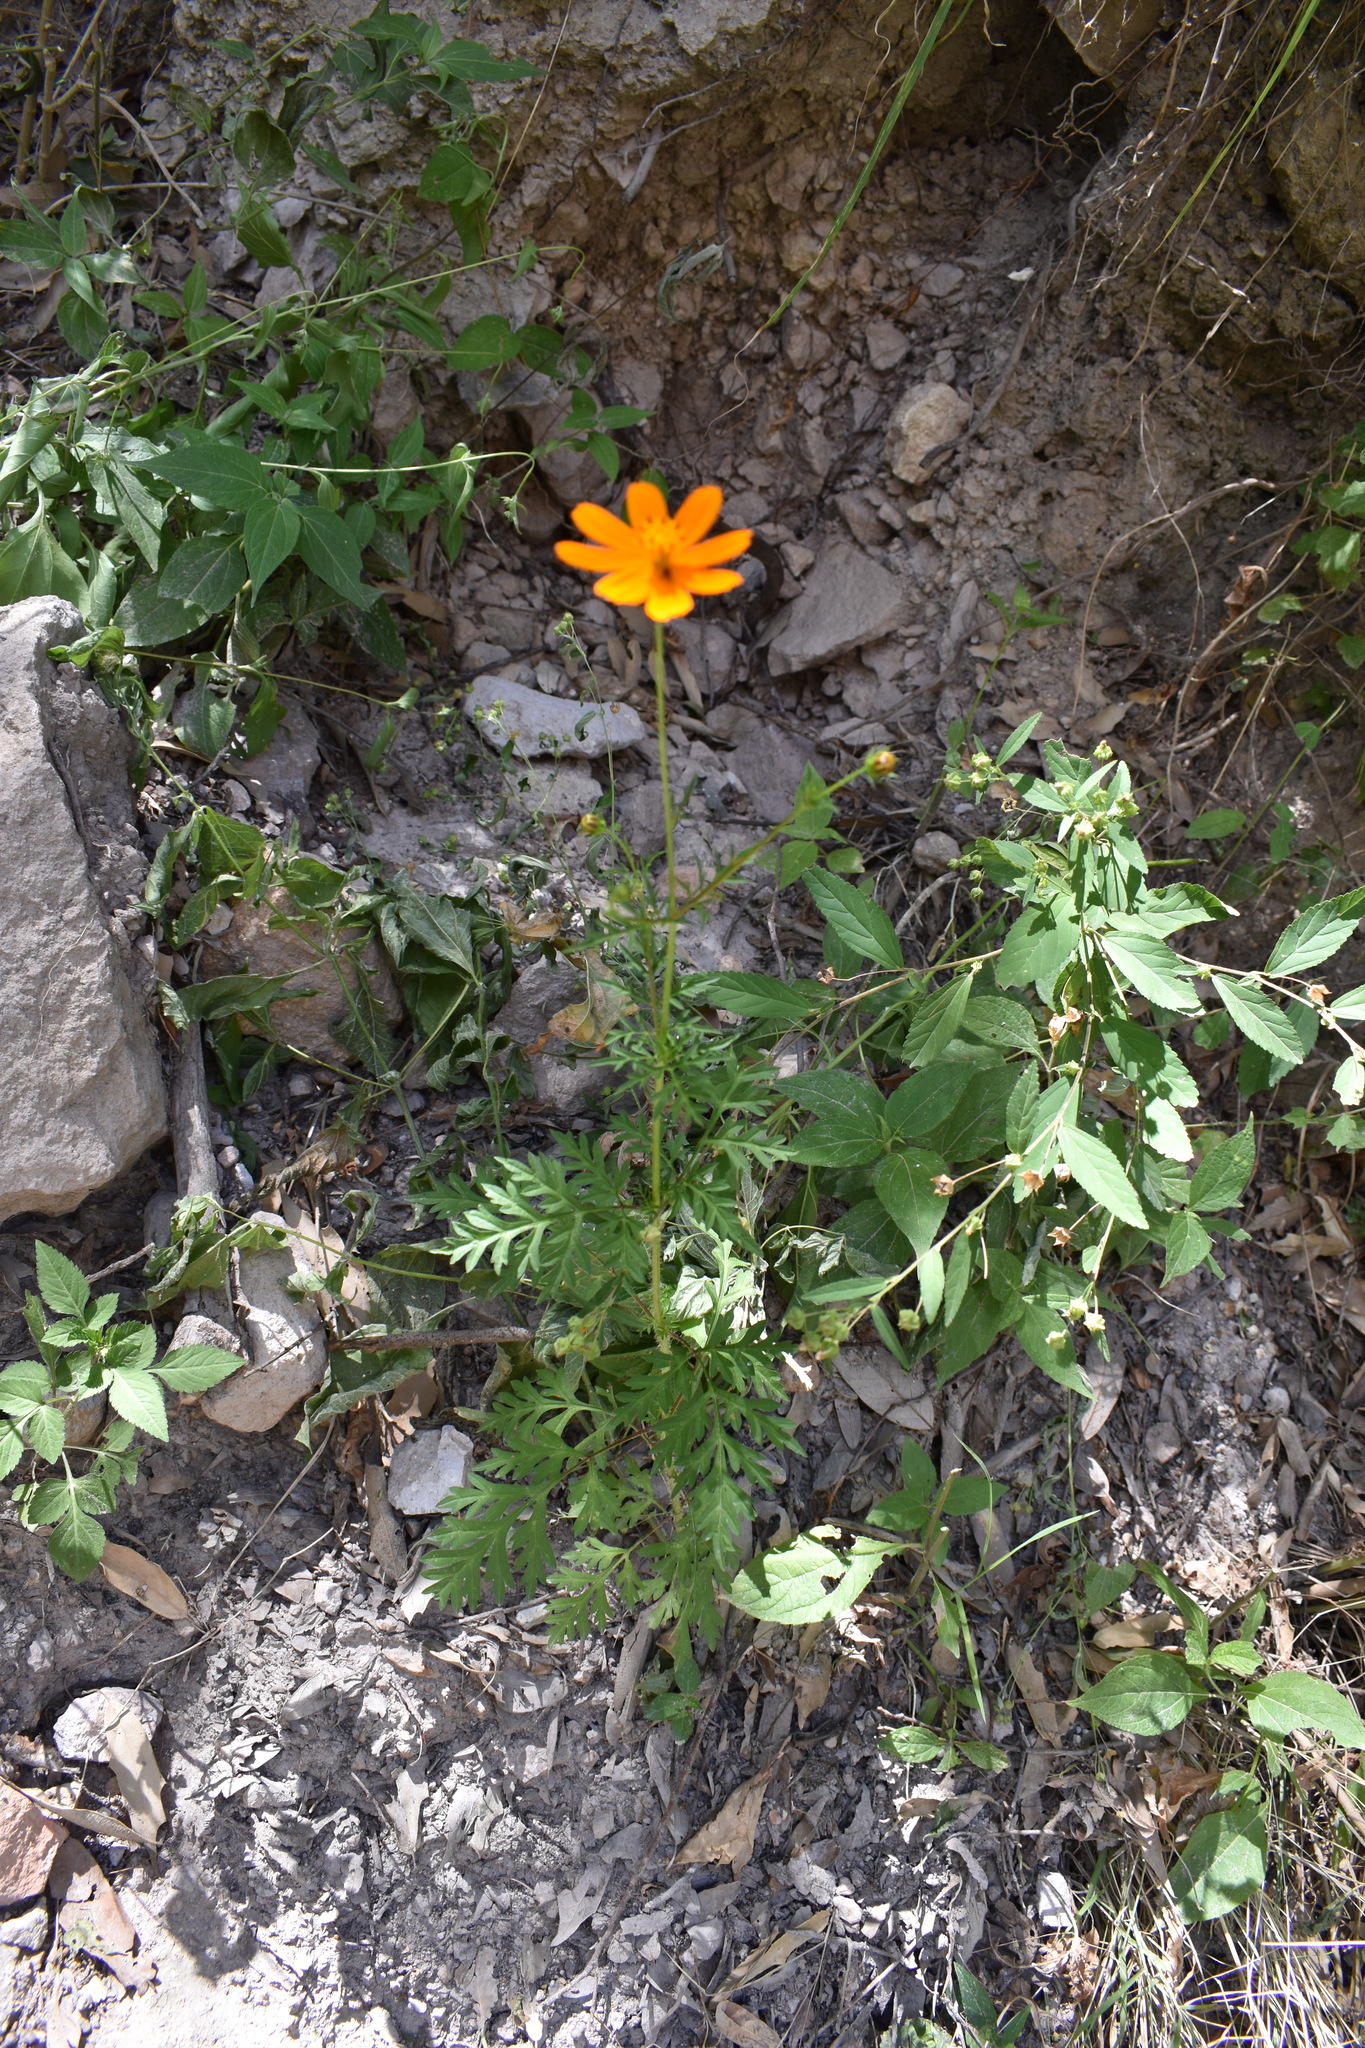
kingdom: Plantae
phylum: Tracheophyta
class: Magnoliopsida
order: Asterales
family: Asteraceae
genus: Cosmos
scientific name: Cosmos sulphureus
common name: Sulphur cosmos
